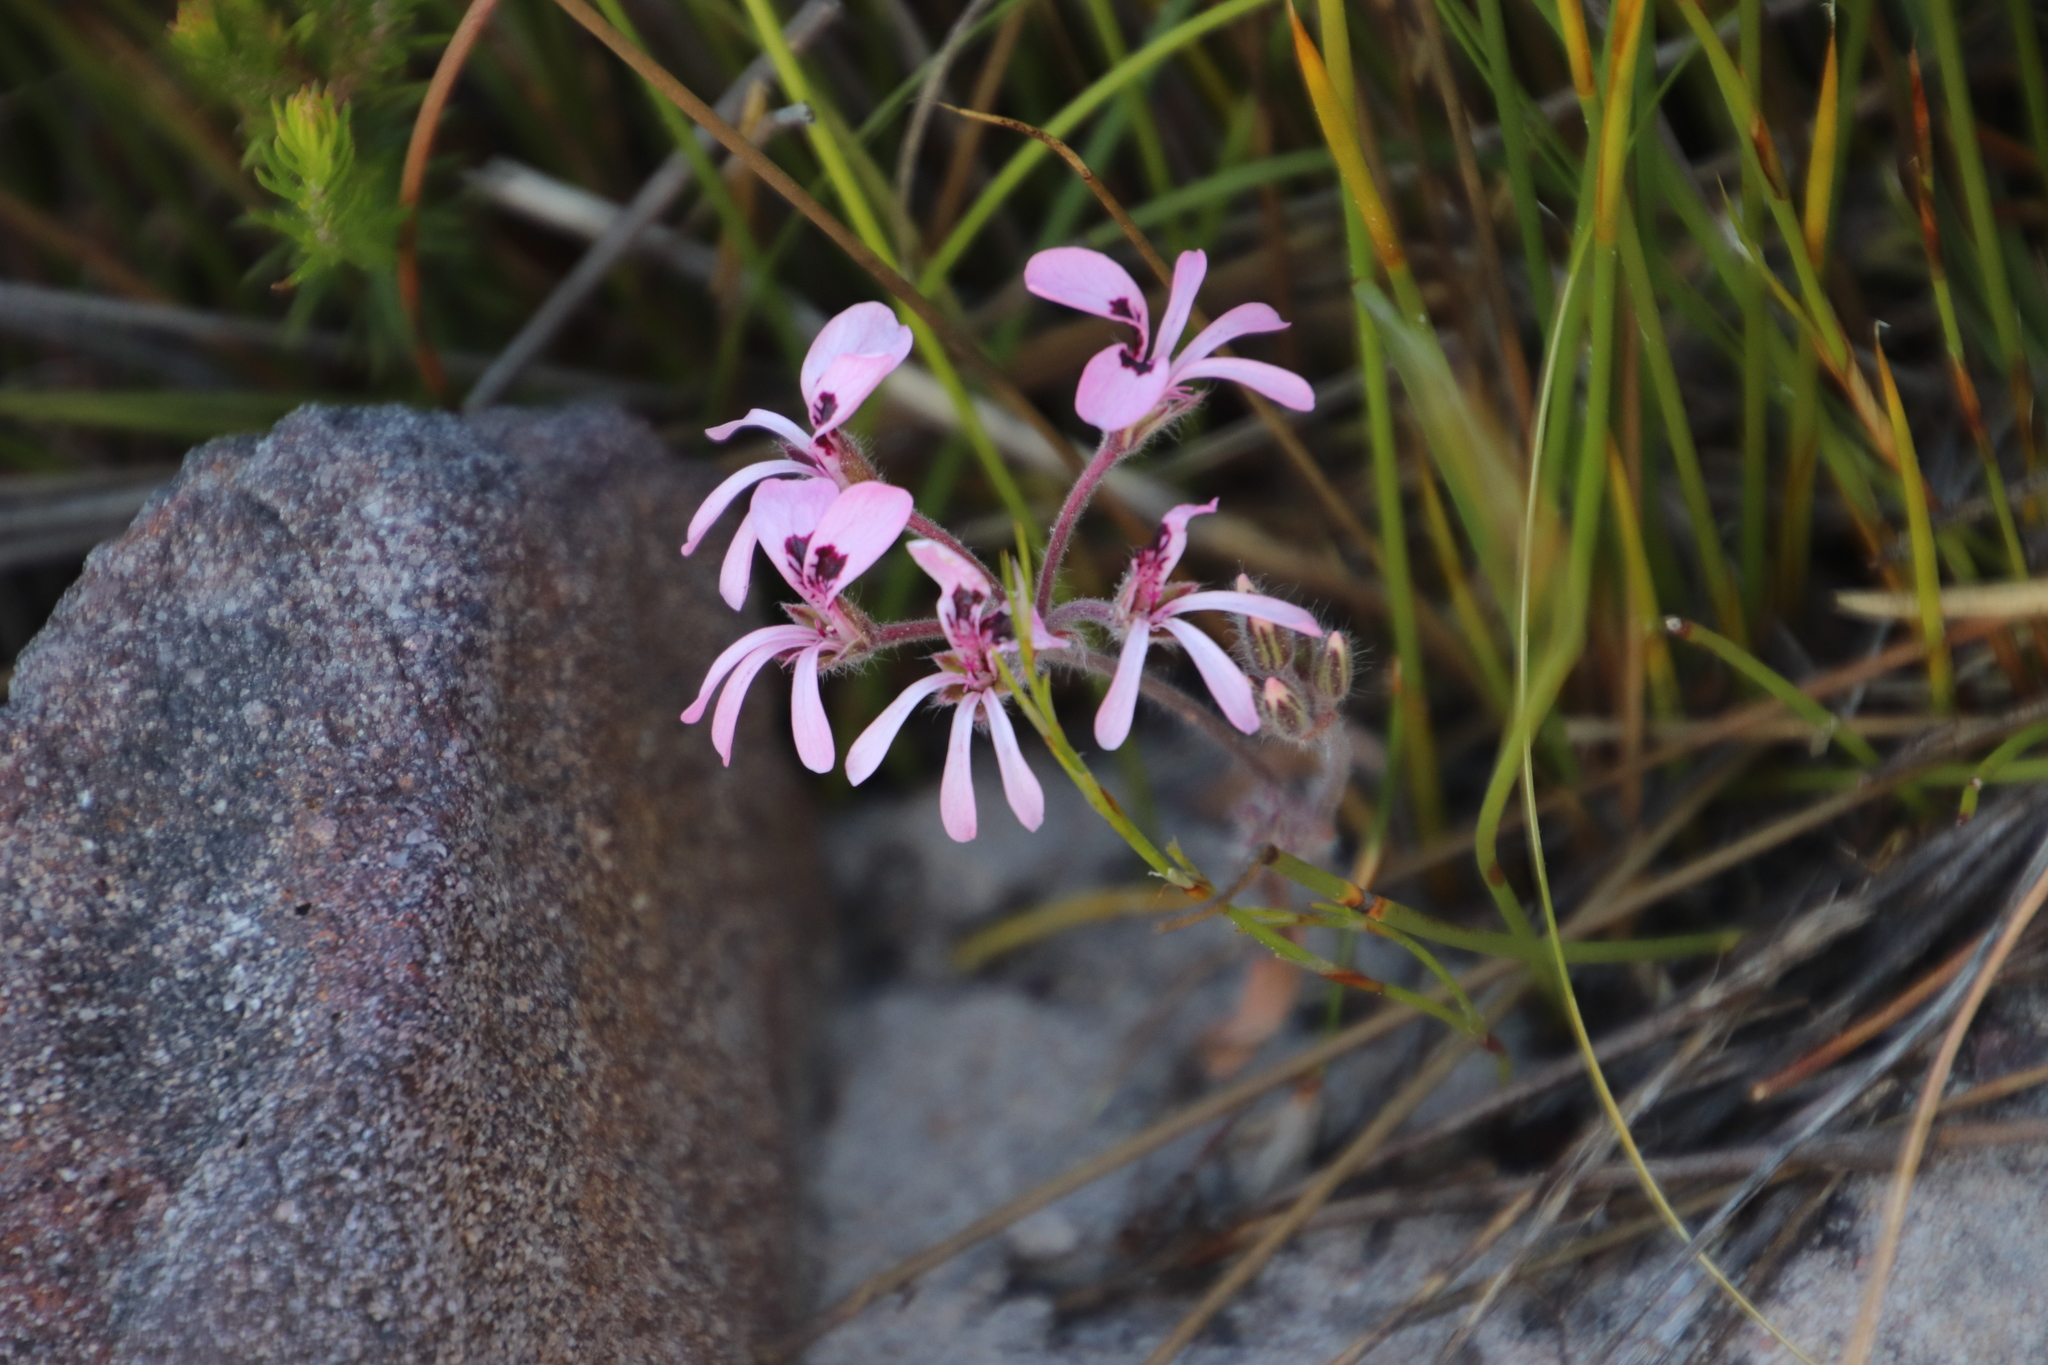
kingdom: Plantae
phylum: Tracheophyta
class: Magnoliopsida
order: Geraniales
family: Geraniaceae
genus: Pelargonium
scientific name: Pelargonium psammophilum
